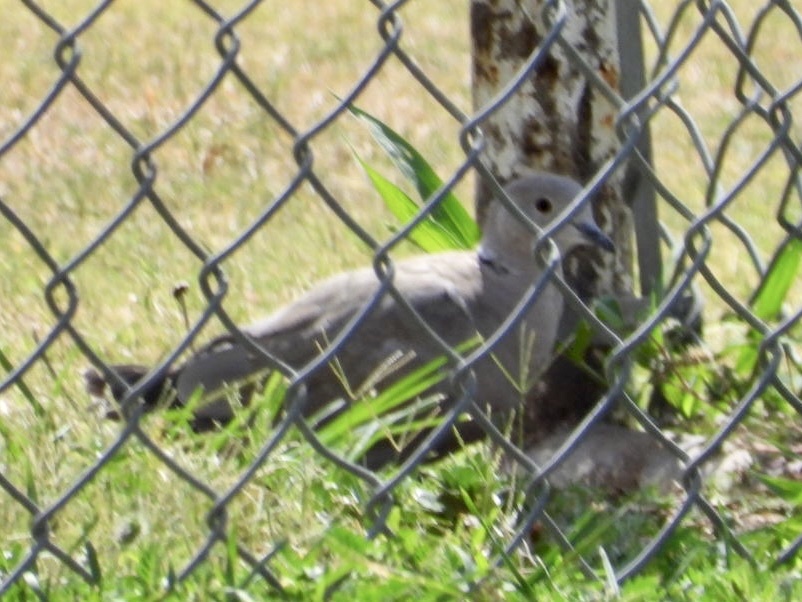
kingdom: Animalia
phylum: Chordata
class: Aves
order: Columbiformes
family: Columbidae
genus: Streptopelia
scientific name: Streptopelia decaocto
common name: Eurasian collared dove
